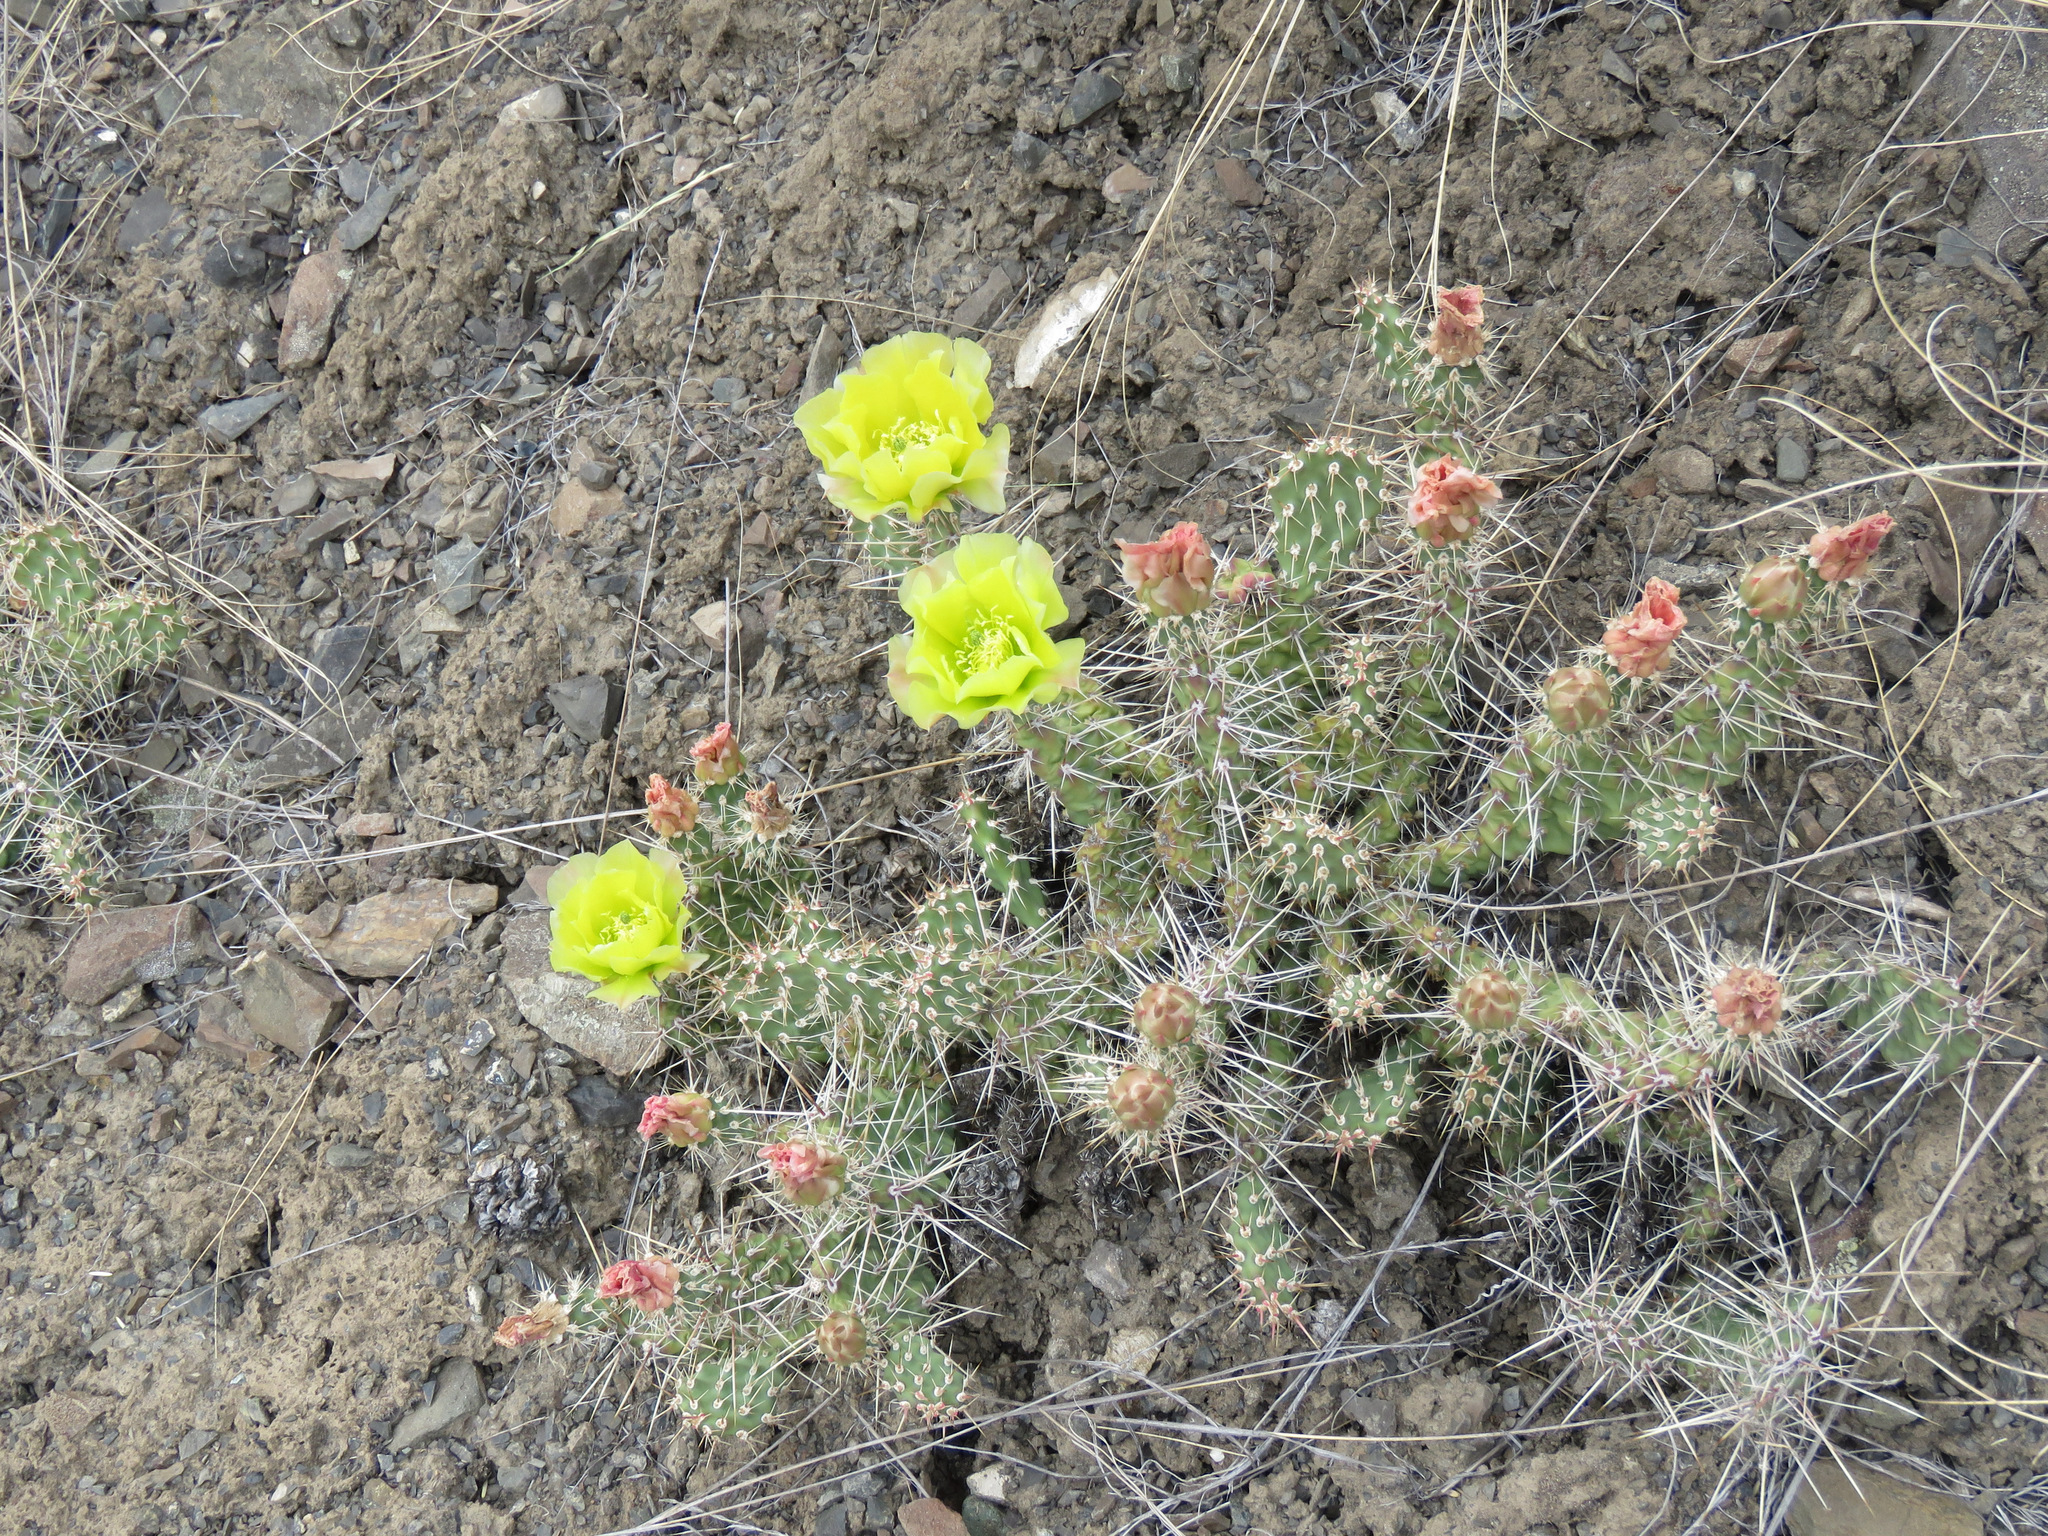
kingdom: Plantae
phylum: Tracheophyta
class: Magnoliopsida
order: Caryophyllales
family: Cactaceae
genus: Opuntia
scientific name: Opuntia columbiana
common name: Columbia prickly-pear
